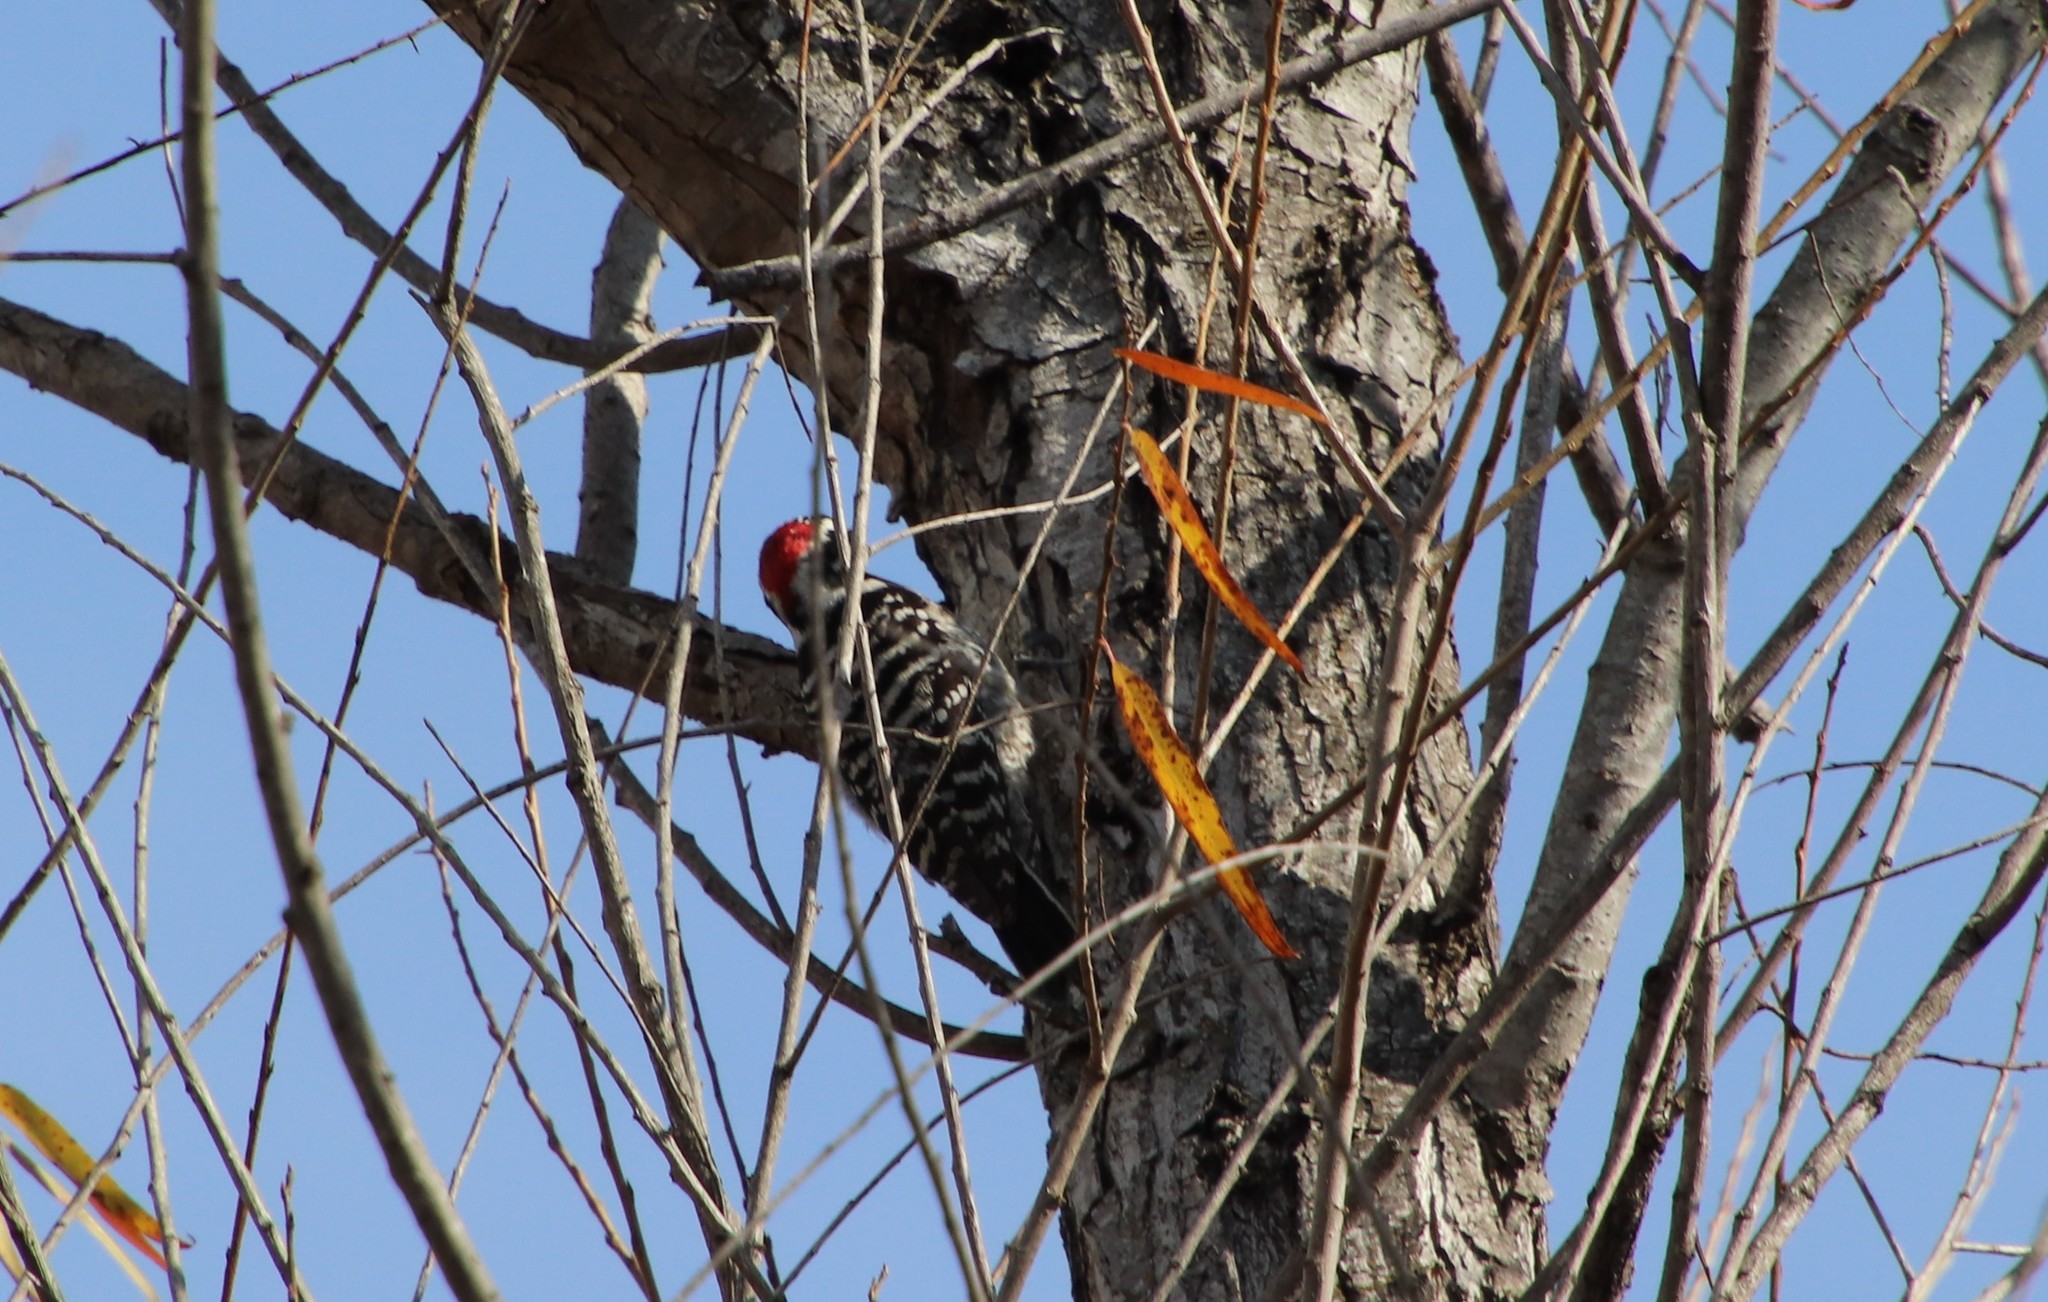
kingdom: Animalia
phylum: Chordata
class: Aves
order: Piciformes
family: Picidae
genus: Dryobates
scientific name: Dryobates nuttallii
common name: Nuttall's woodpecker
